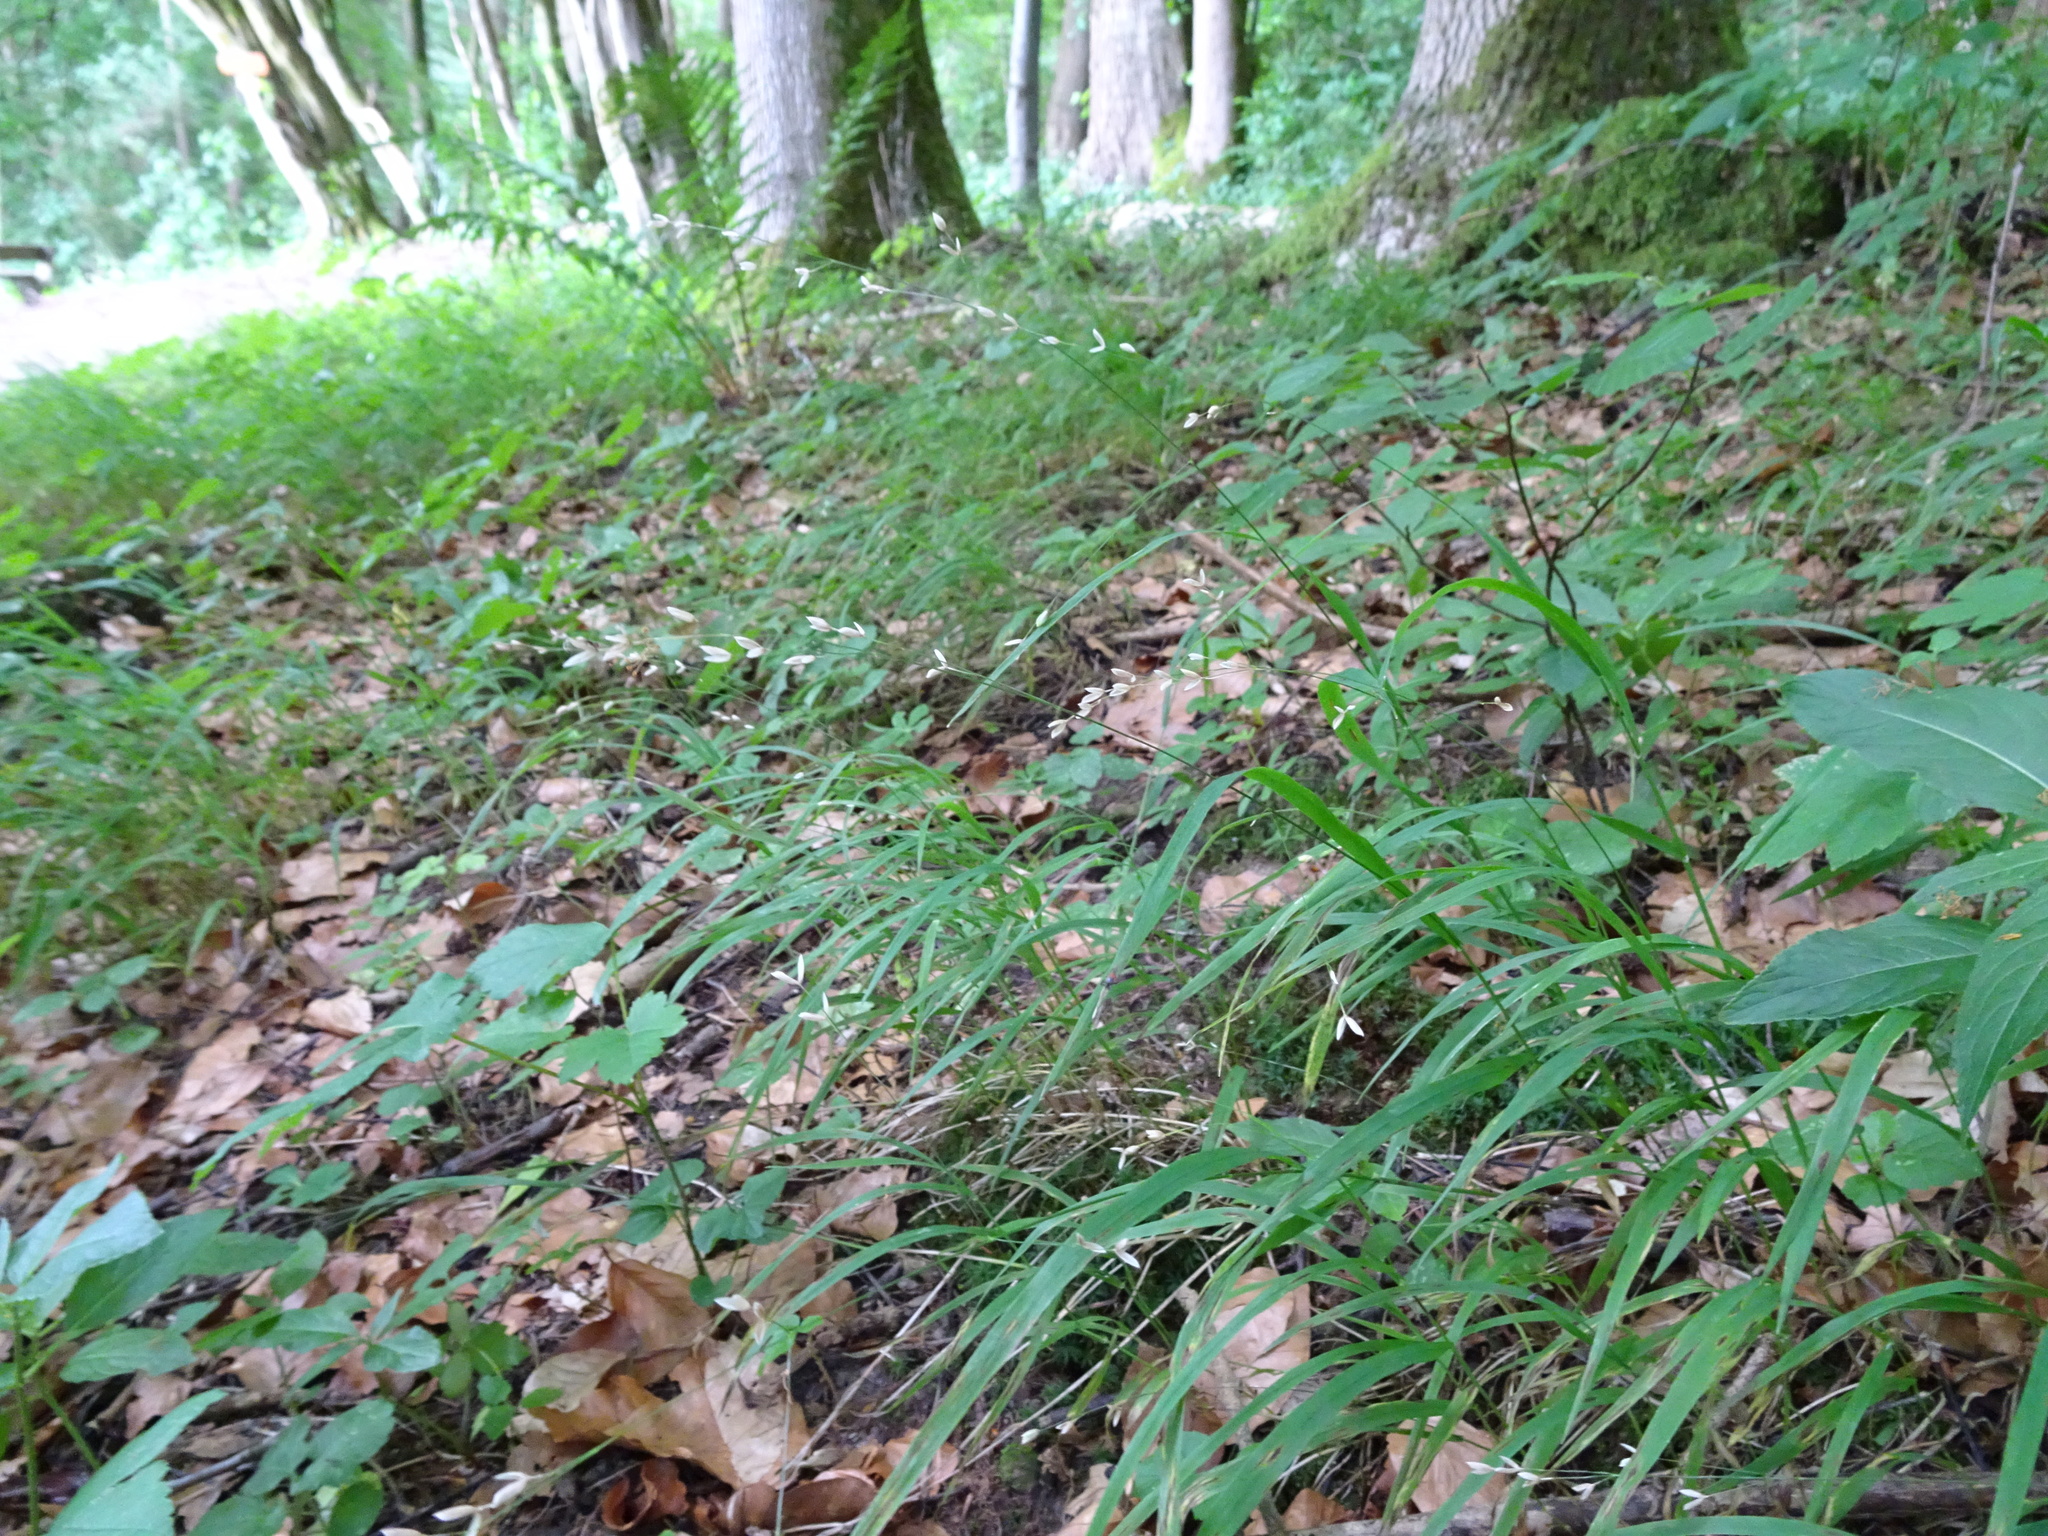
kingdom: Plantae
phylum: Tracheophyta
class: Liliopsida
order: Poales
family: Poaceae
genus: Melica
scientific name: Melica uniflora
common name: Wood melick
